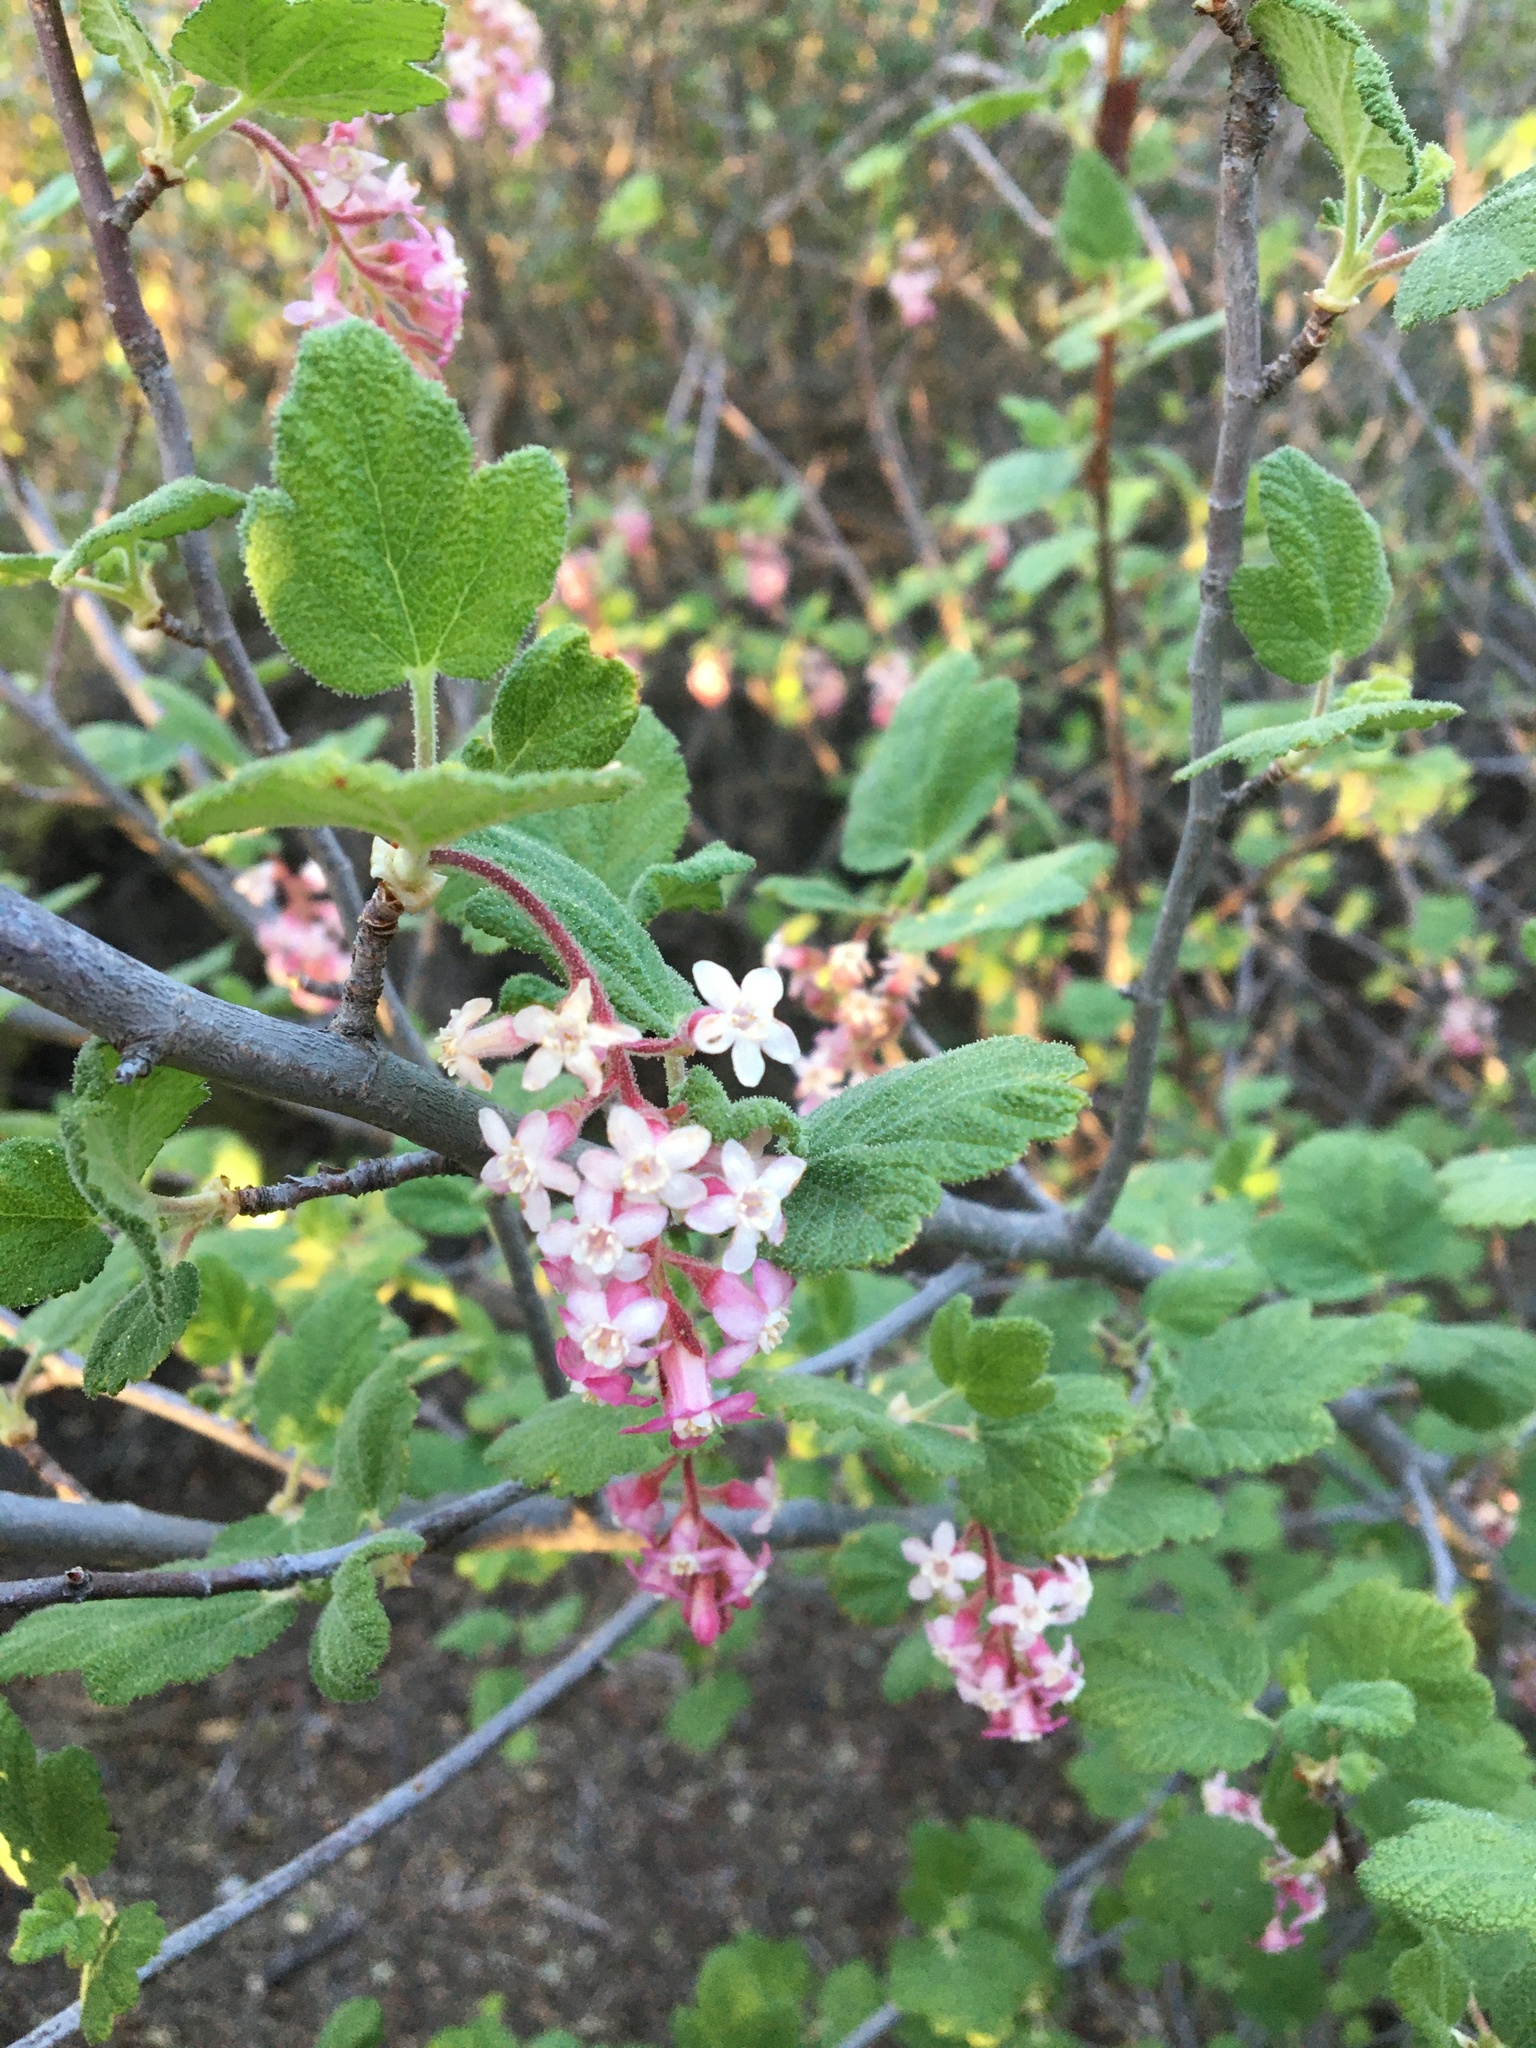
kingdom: Plantae
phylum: Tracheophyta
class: Magnoliopsida
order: Saxifragales
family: Grossulariaceae
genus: Ribes
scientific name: Ribes malvaceum
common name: Chaparral currant
